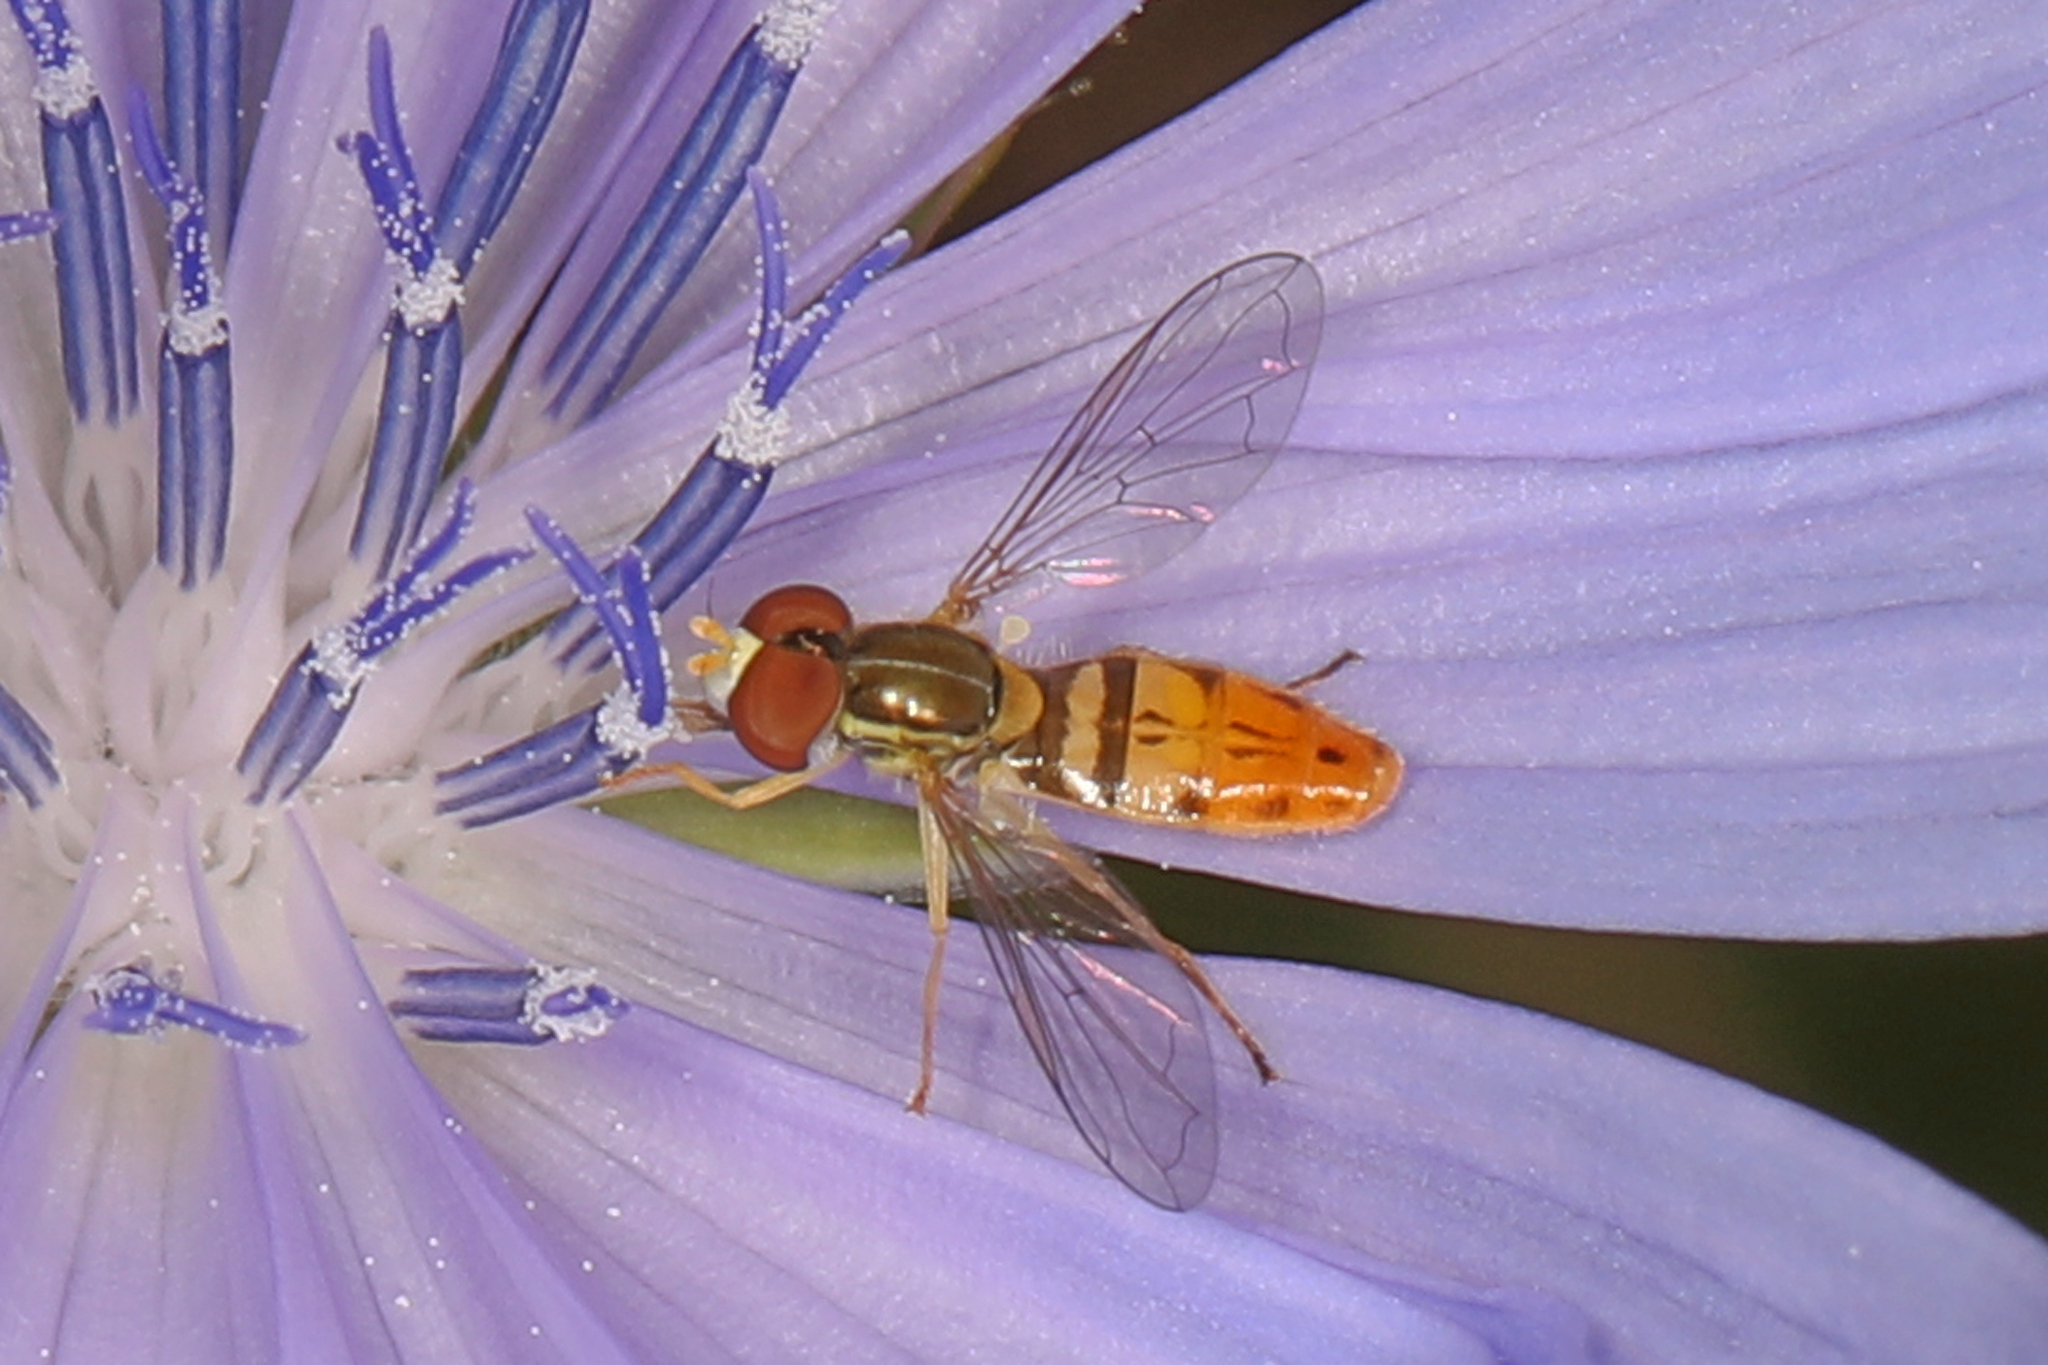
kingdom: Animalia
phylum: Arthropoda
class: Insecta
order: Diptera
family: Syrphidae
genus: Toxomerus
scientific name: Toxomerus marginatus
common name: Syrphid fly
